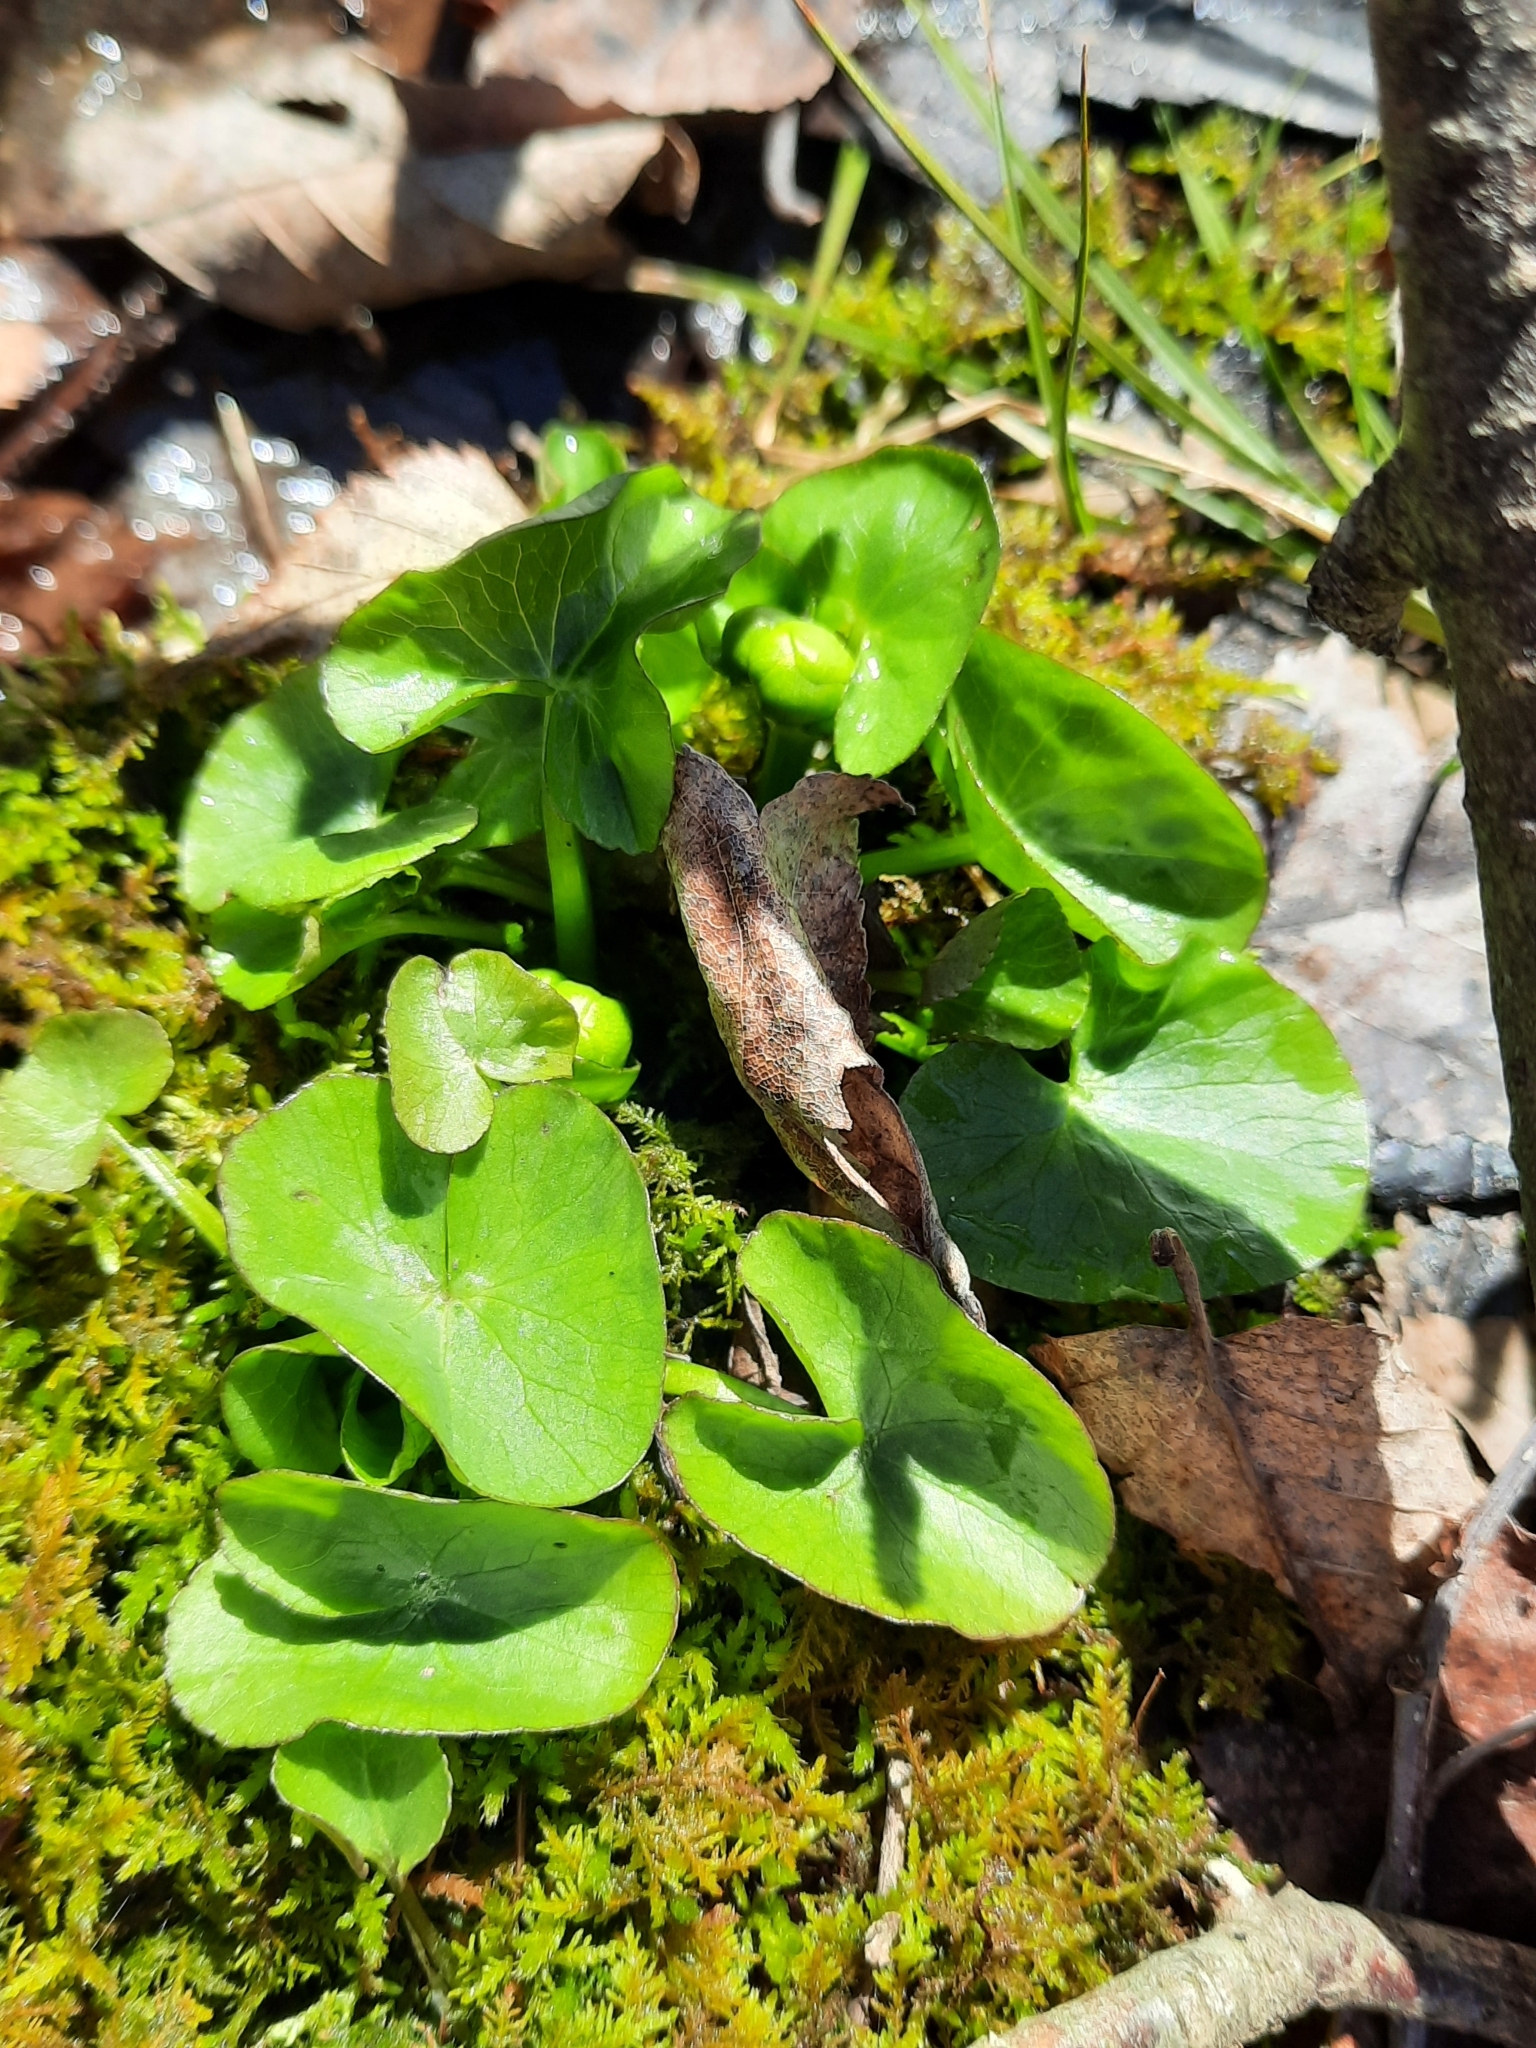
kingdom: Plantae
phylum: Tracheophyta
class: Magnoliopsida
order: Ranunculales
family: Ranunculaceae
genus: Caltha
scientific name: Caltha palustris
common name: Marsh marigold
